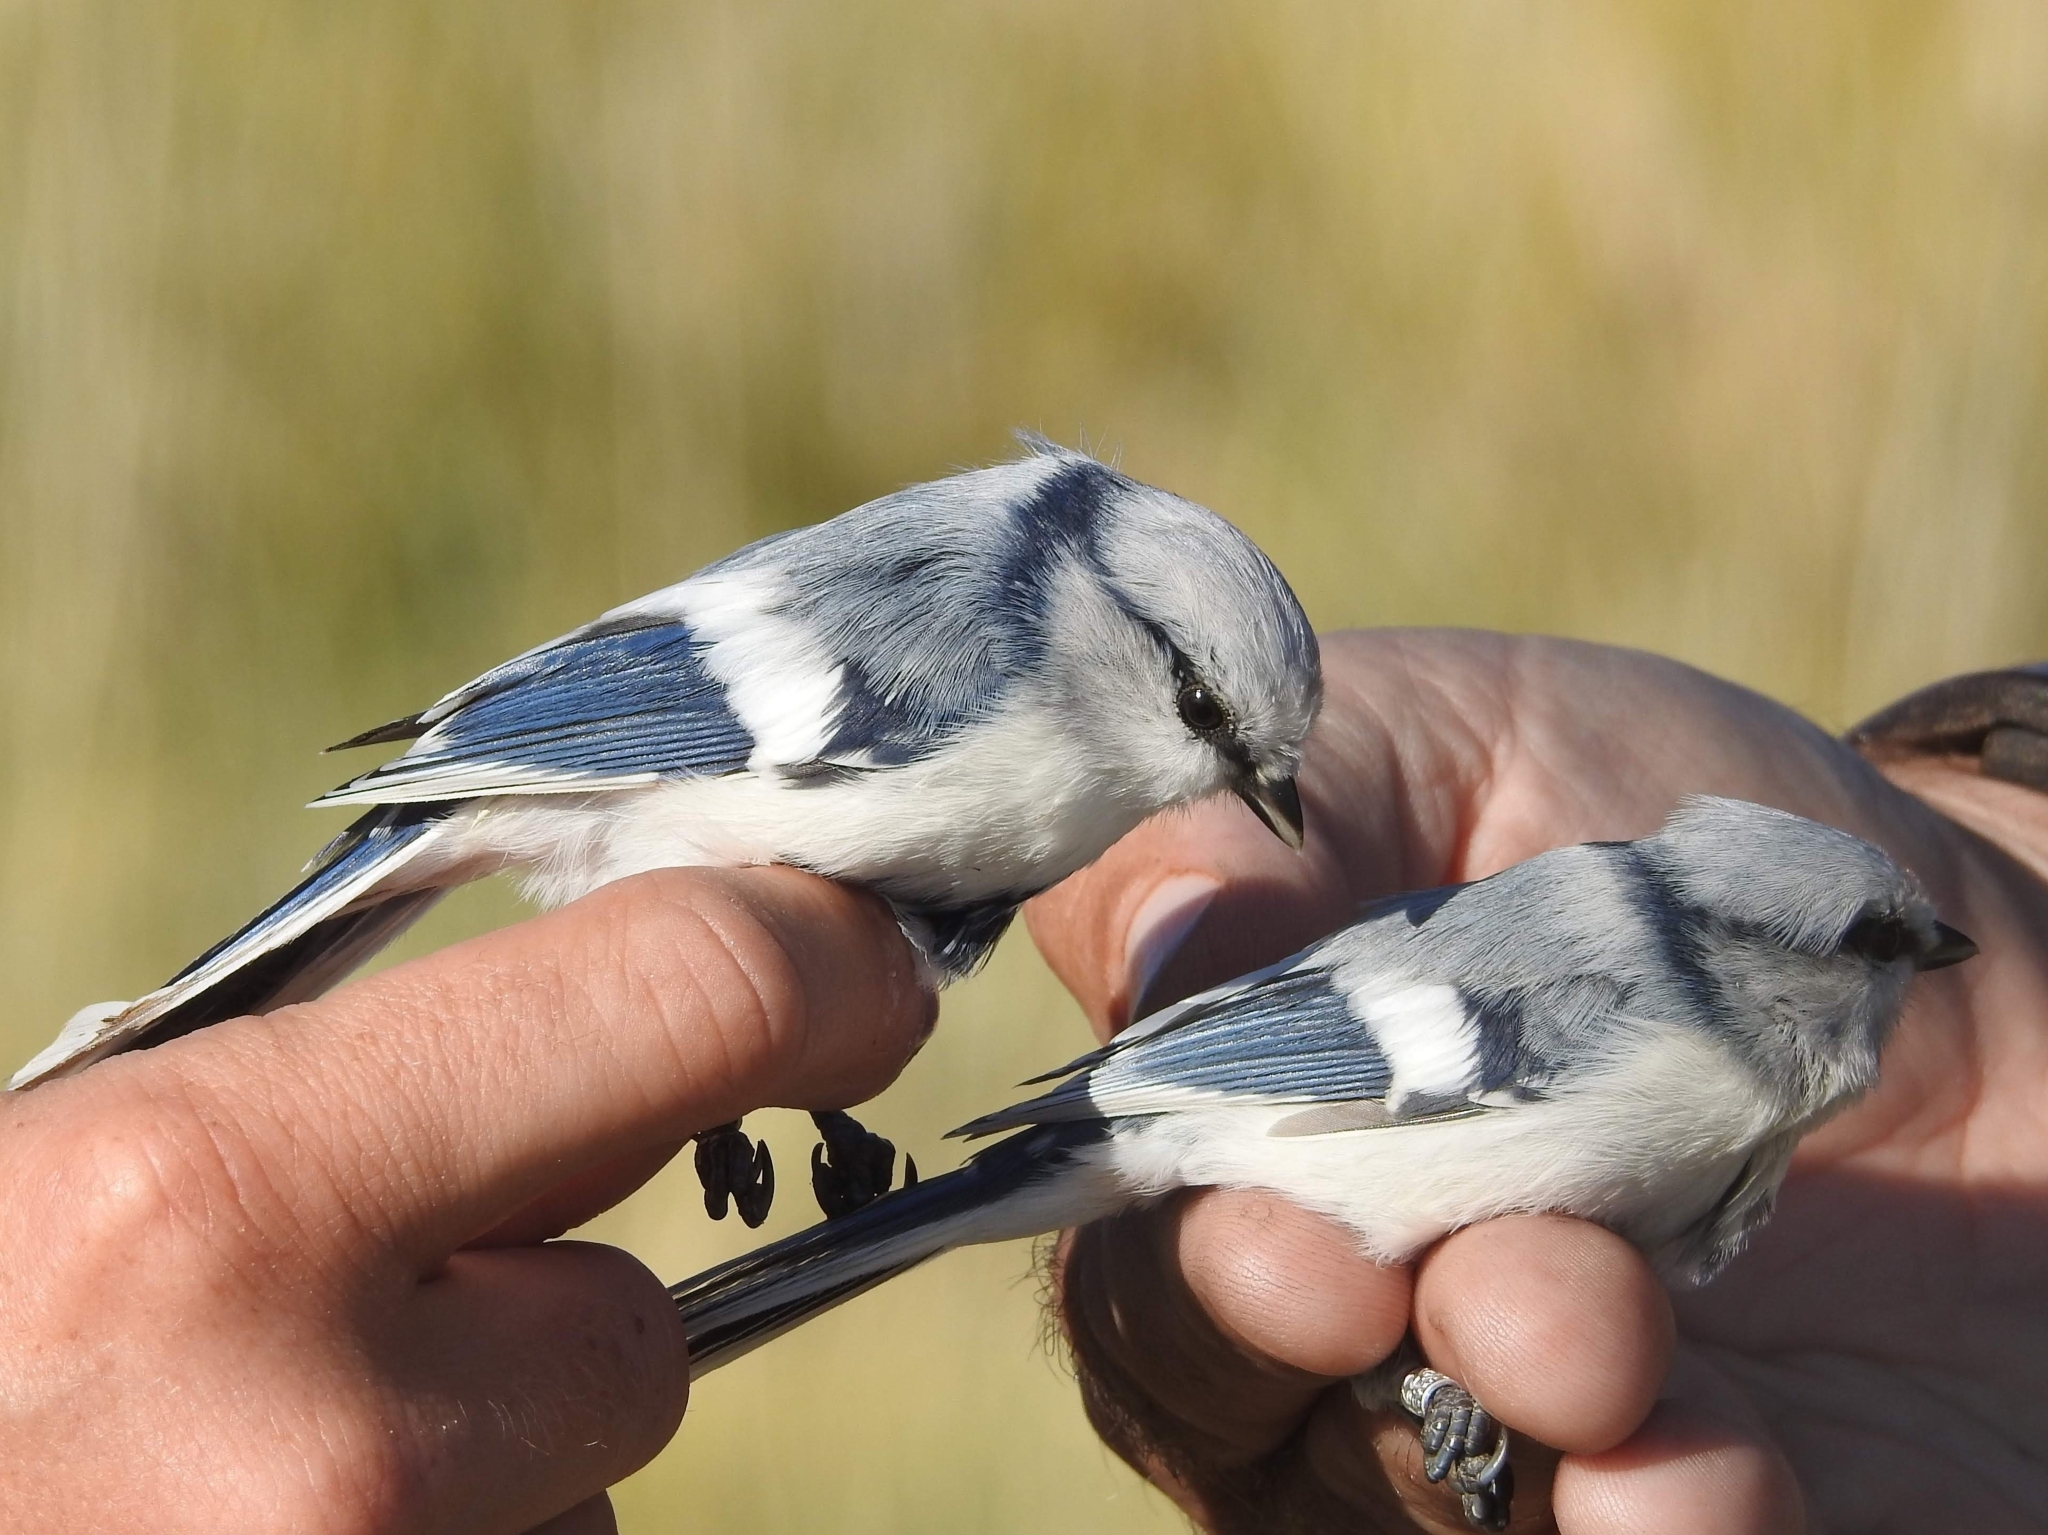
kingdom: Animalia
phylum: Chordata
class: Aves
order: Passeriformes
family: Paridae
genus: Cyanistes
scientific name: Cyanistes cyanus
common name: Azure tit
